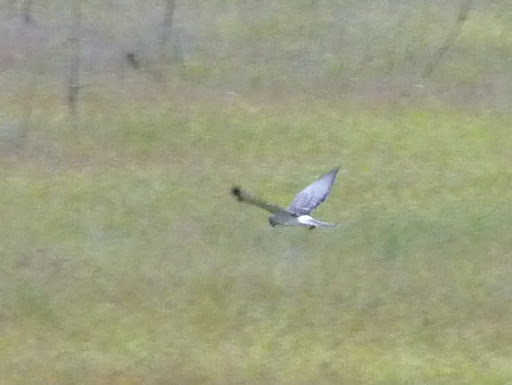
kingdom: Animalia
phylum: Chordata
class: Aves
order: Accipitriformes
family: Accipitridae
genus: Circus
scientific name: Circus cyaneus
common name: Hen harrier
